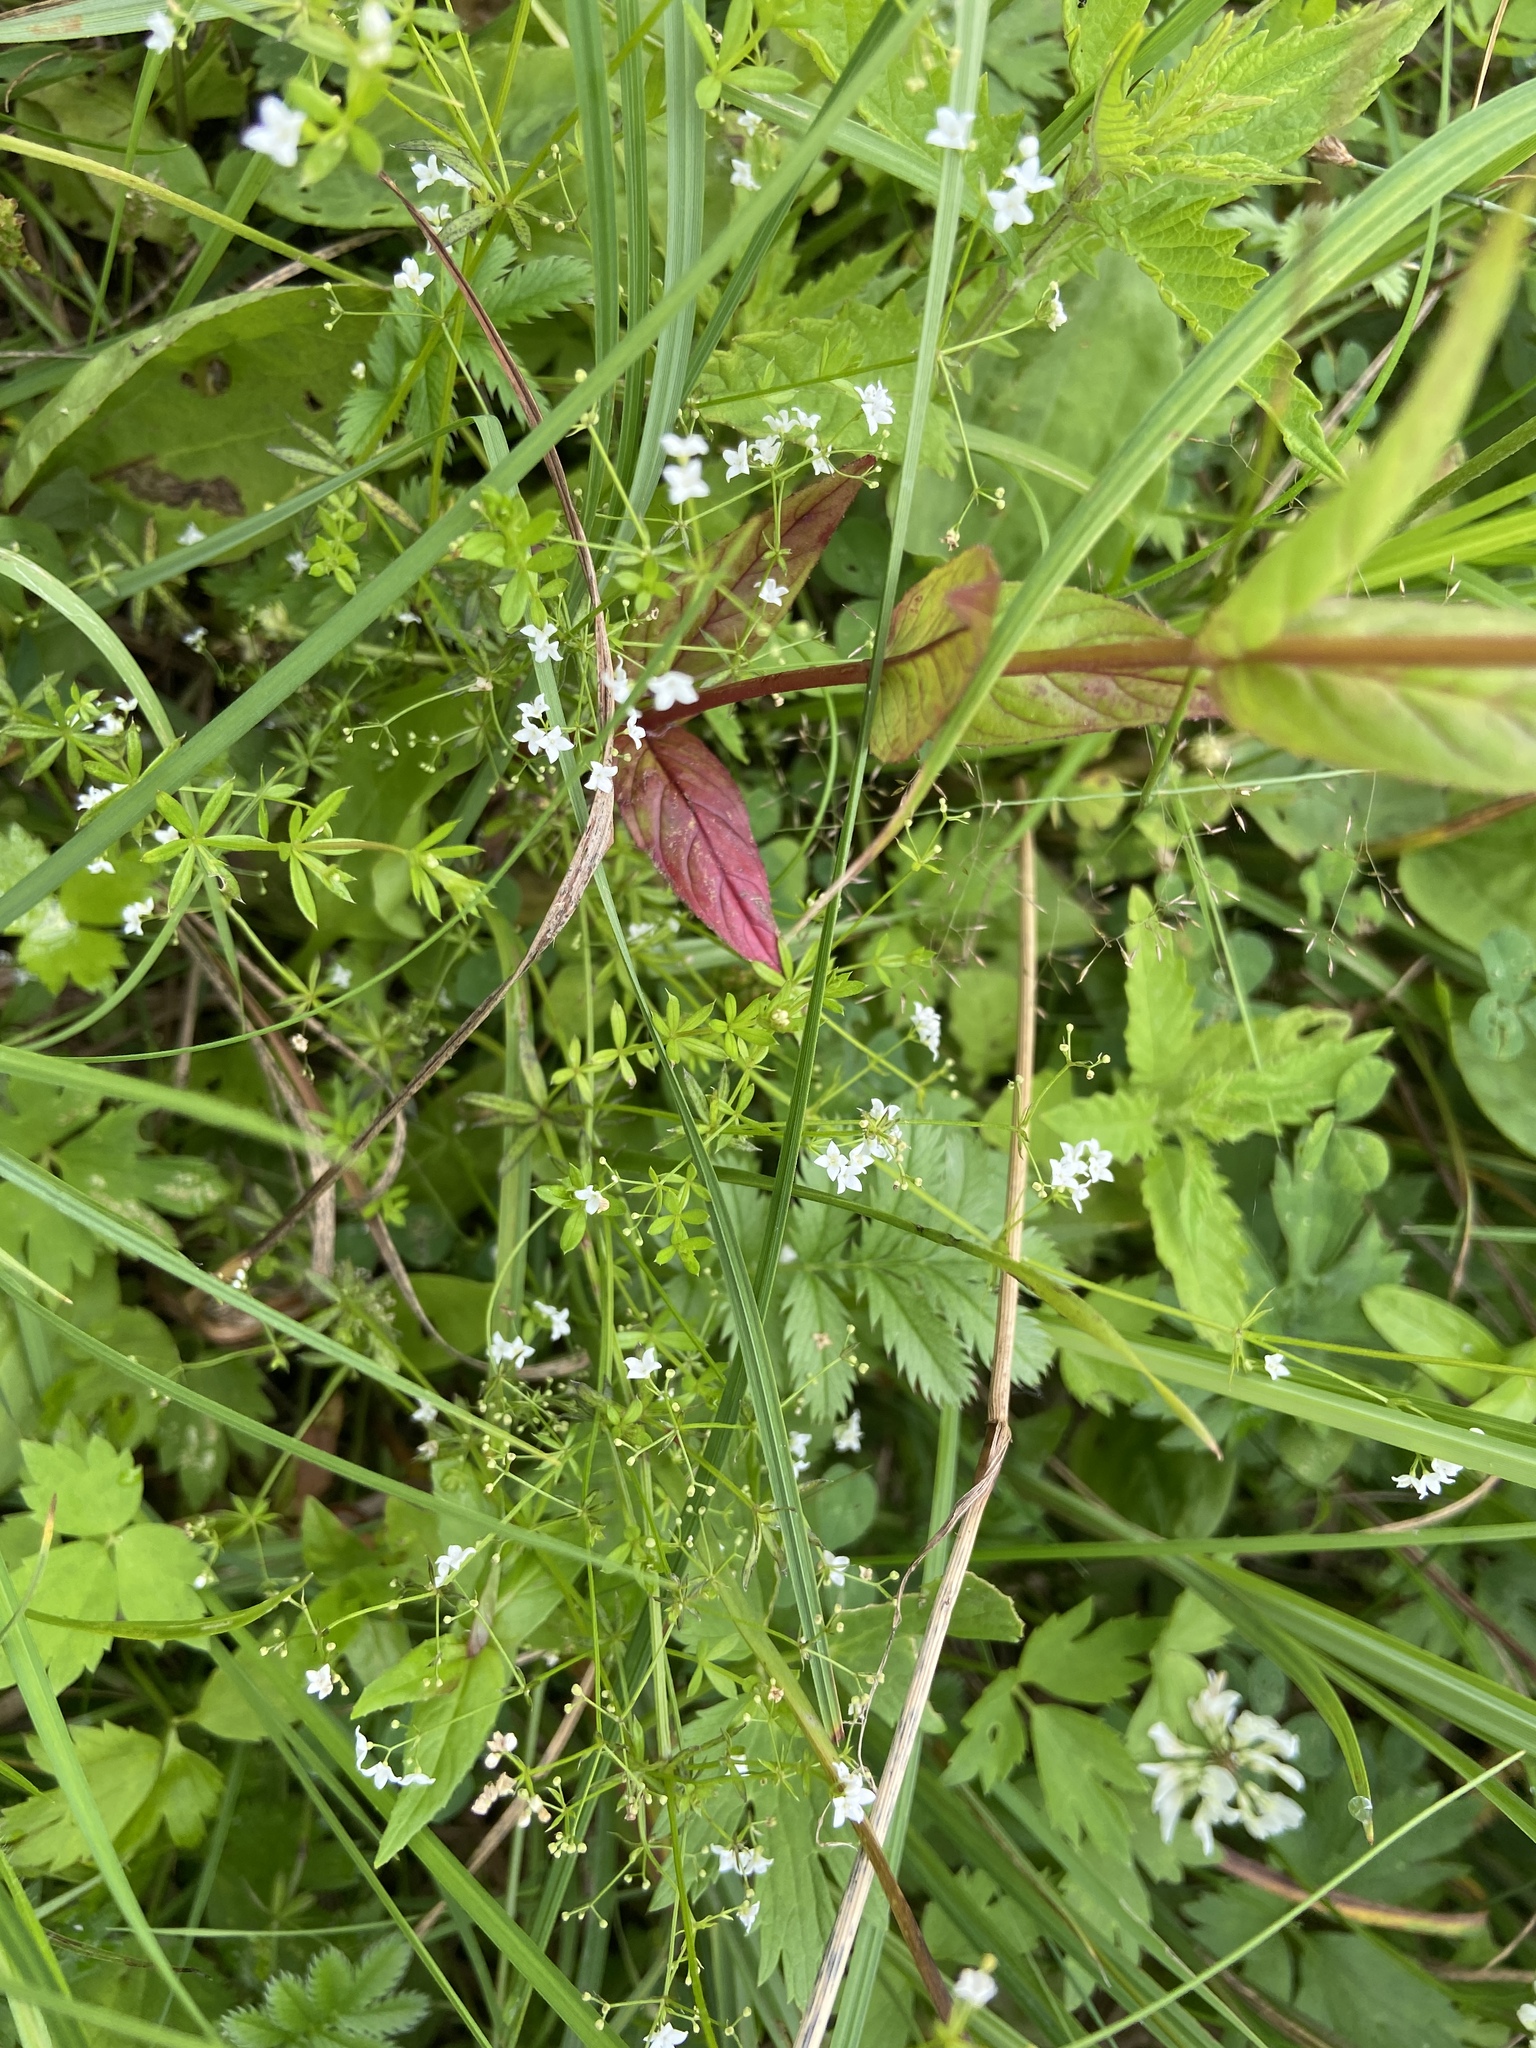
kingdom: Plantae
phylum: Tracheophyta
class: Magnoliopsida
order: Gentianales
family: Rubiaceae
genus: Galium
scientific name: Galium uliginosum
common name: Fen bedstraw
